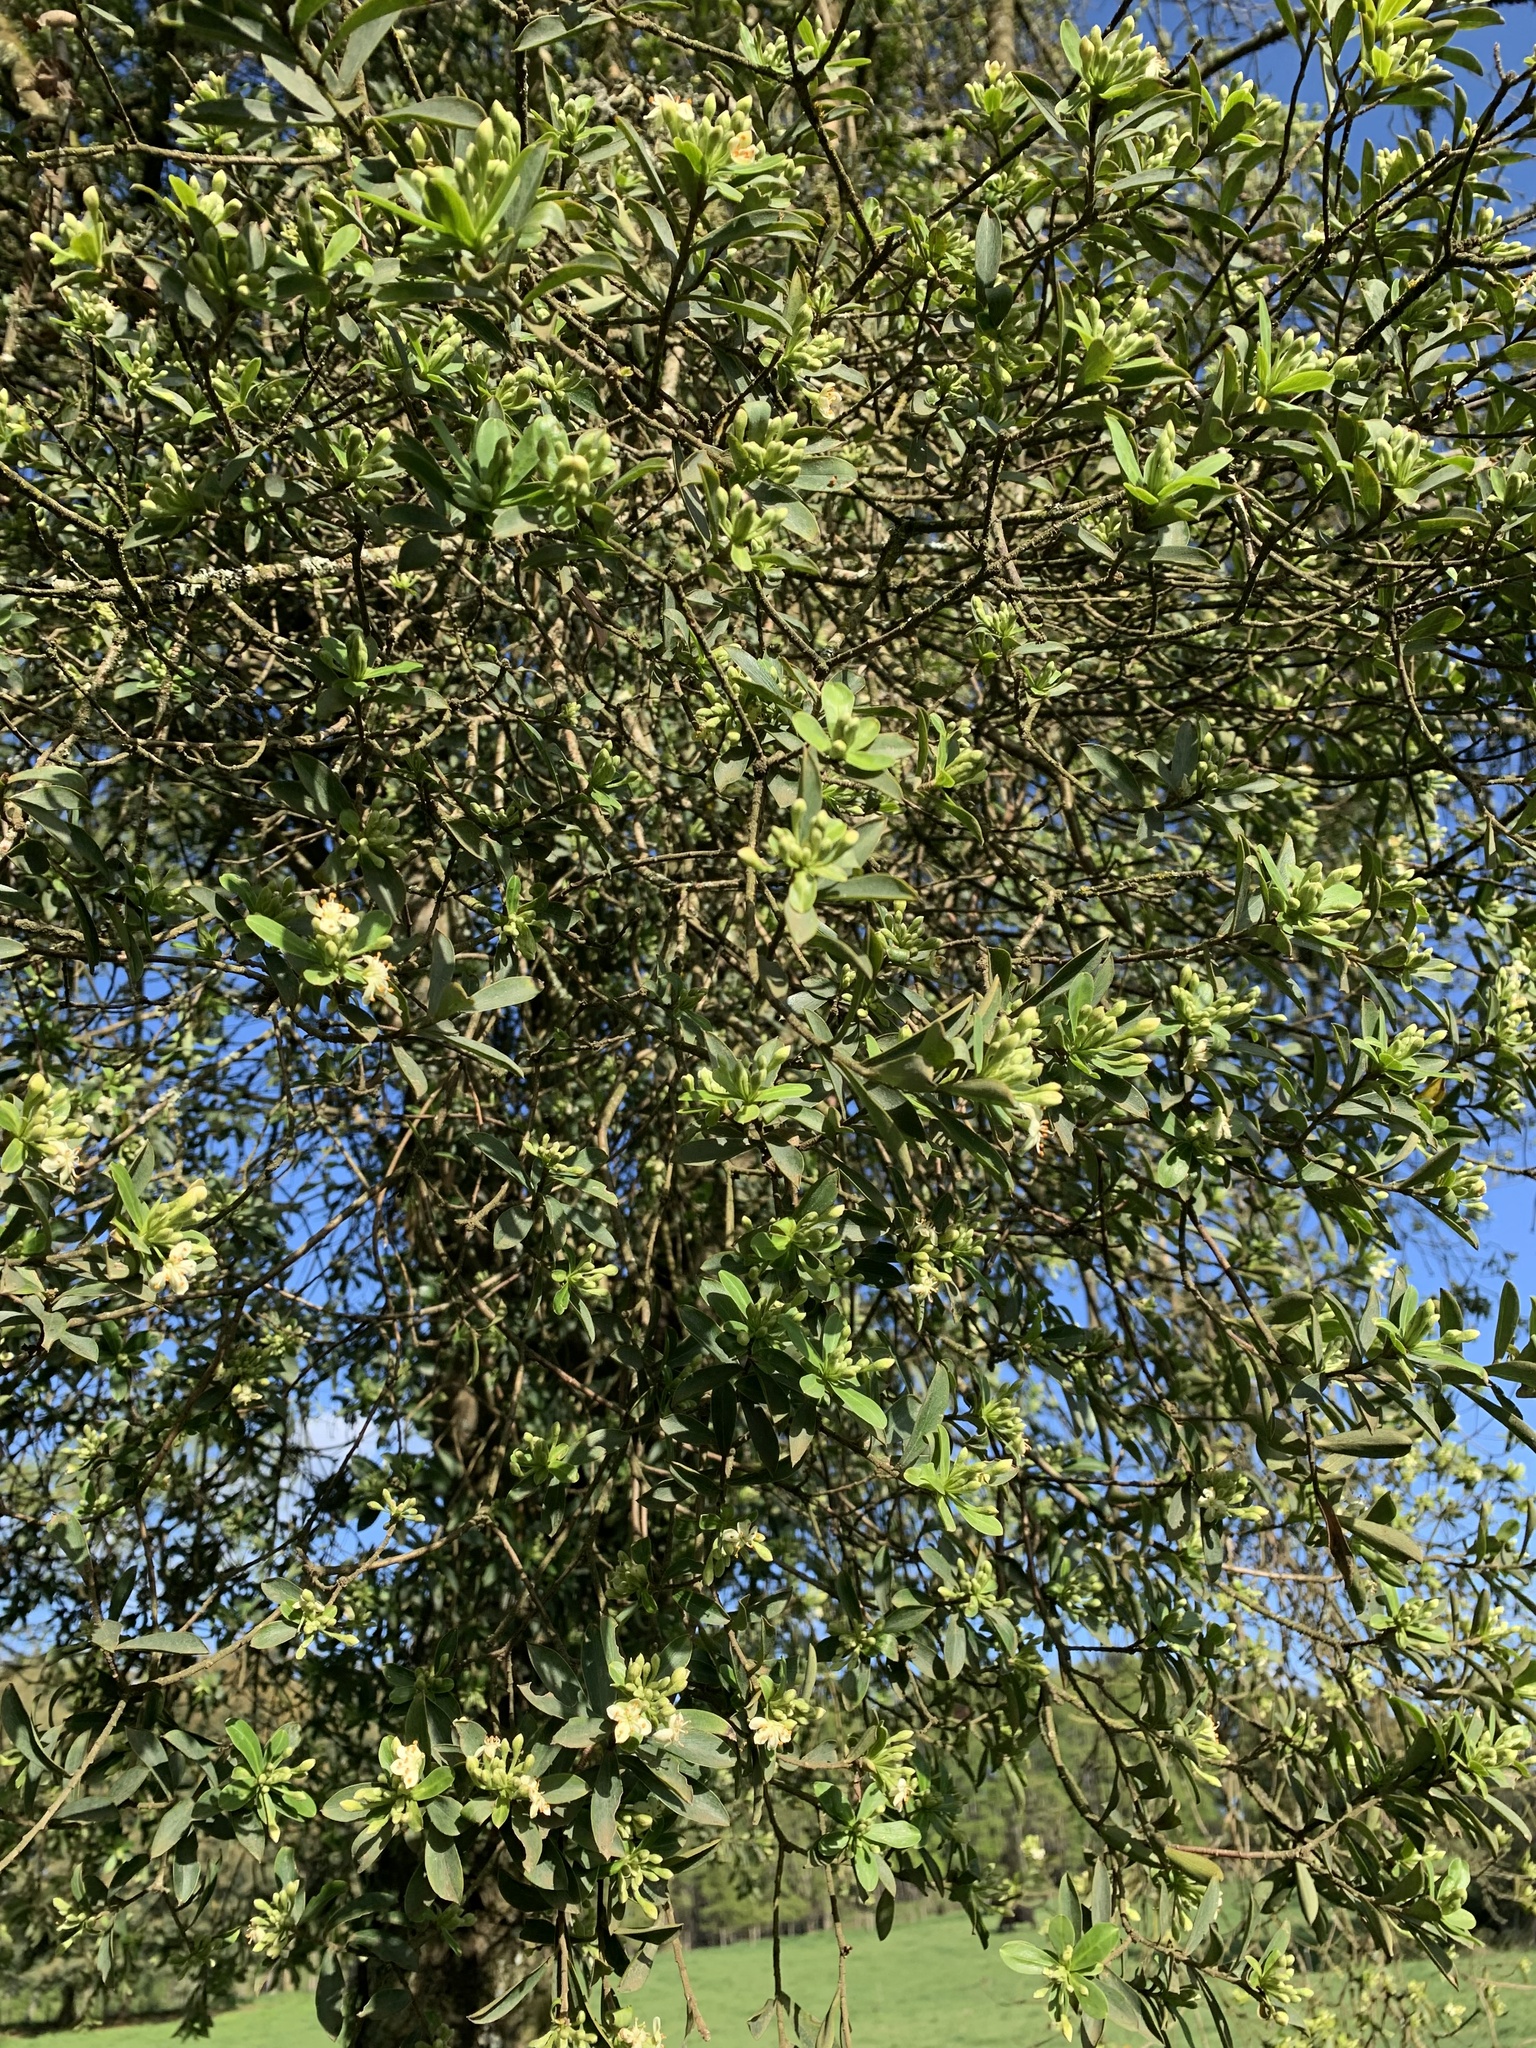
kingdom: Plantae
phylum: Tracheophyta
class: Magnoliopsida
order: Malvales
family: Thymelaeaceae
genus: Ovidia
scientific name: Ovidia andina
